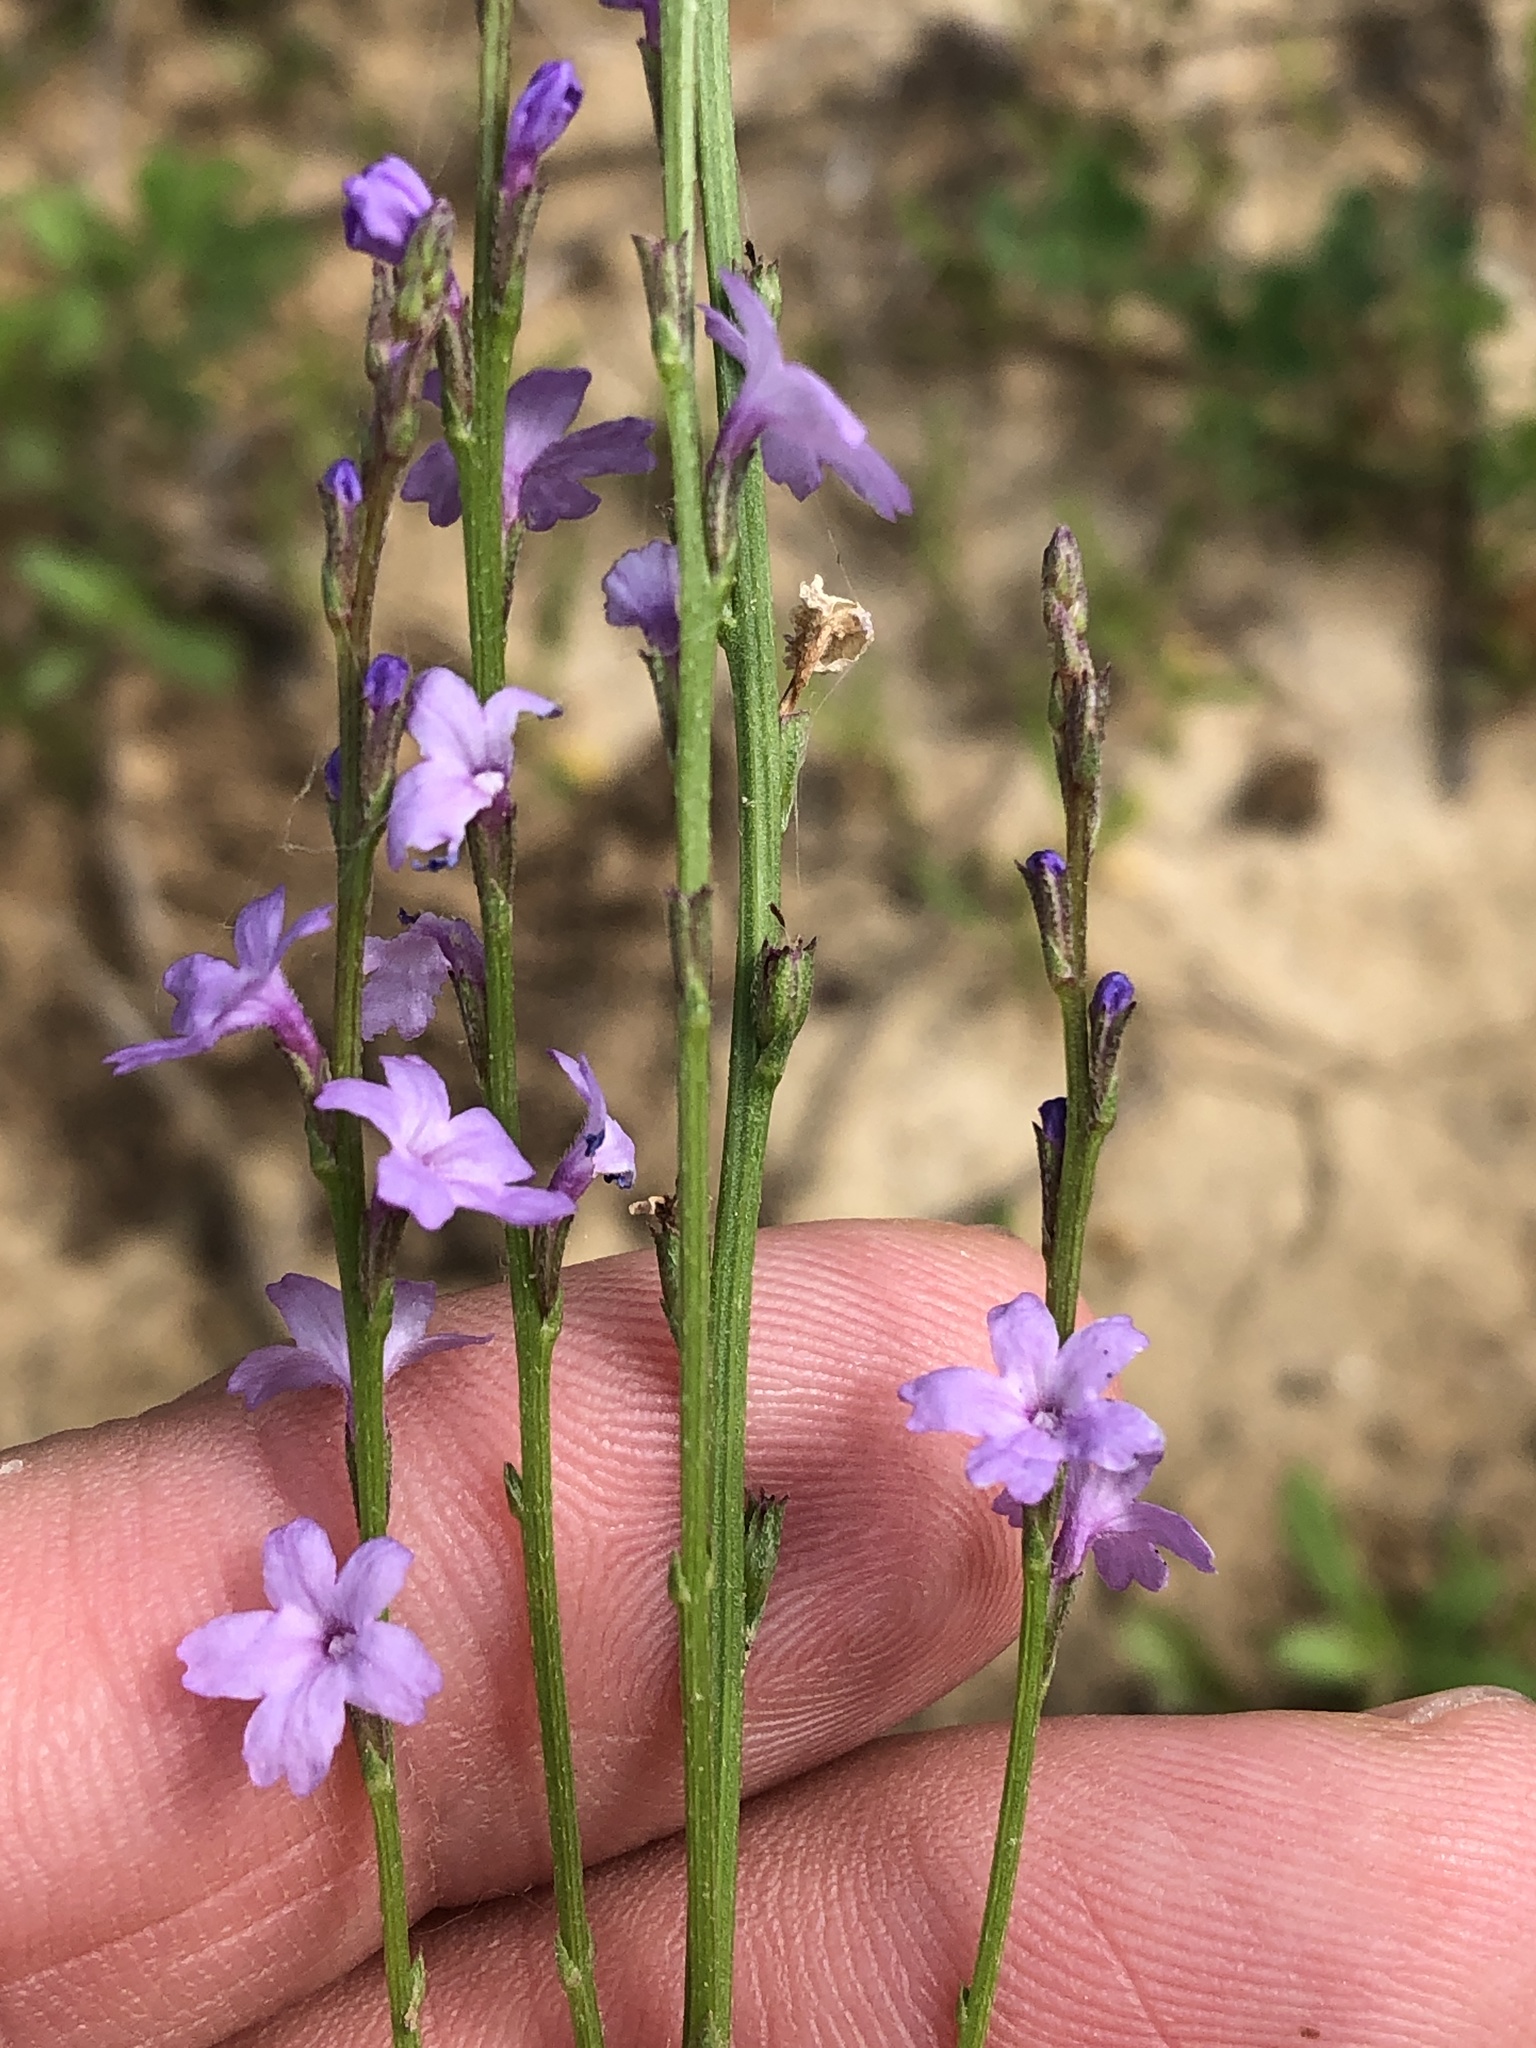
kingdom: Plantae
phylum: Tracheophyta
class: Magnoliopsida
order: Lamiales
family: Verbenaceae
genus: Verbena
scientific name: Verbena halei
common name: Texas vervain
